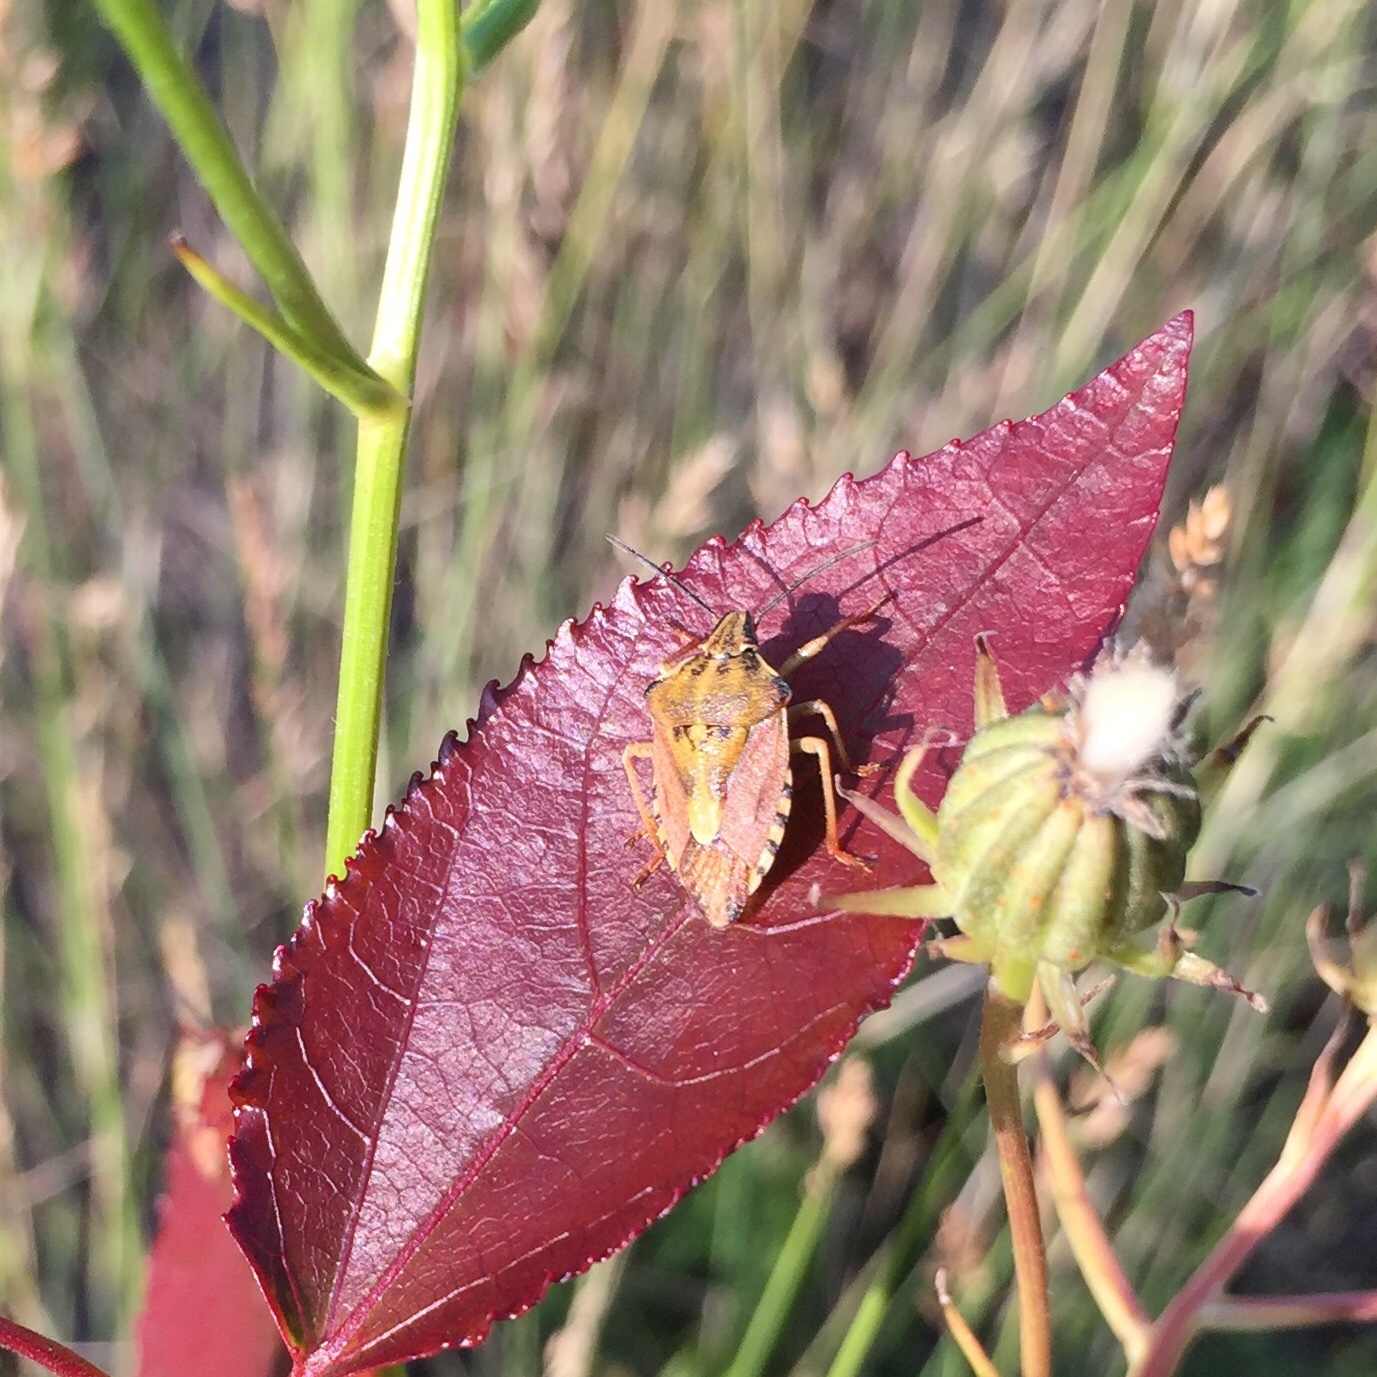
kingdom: Animalia
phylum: Arthropoda
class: Insecta
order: Hemiptera
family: Pentatomidae
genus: Carpocoris
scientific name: Carpocoris purpureipennis
